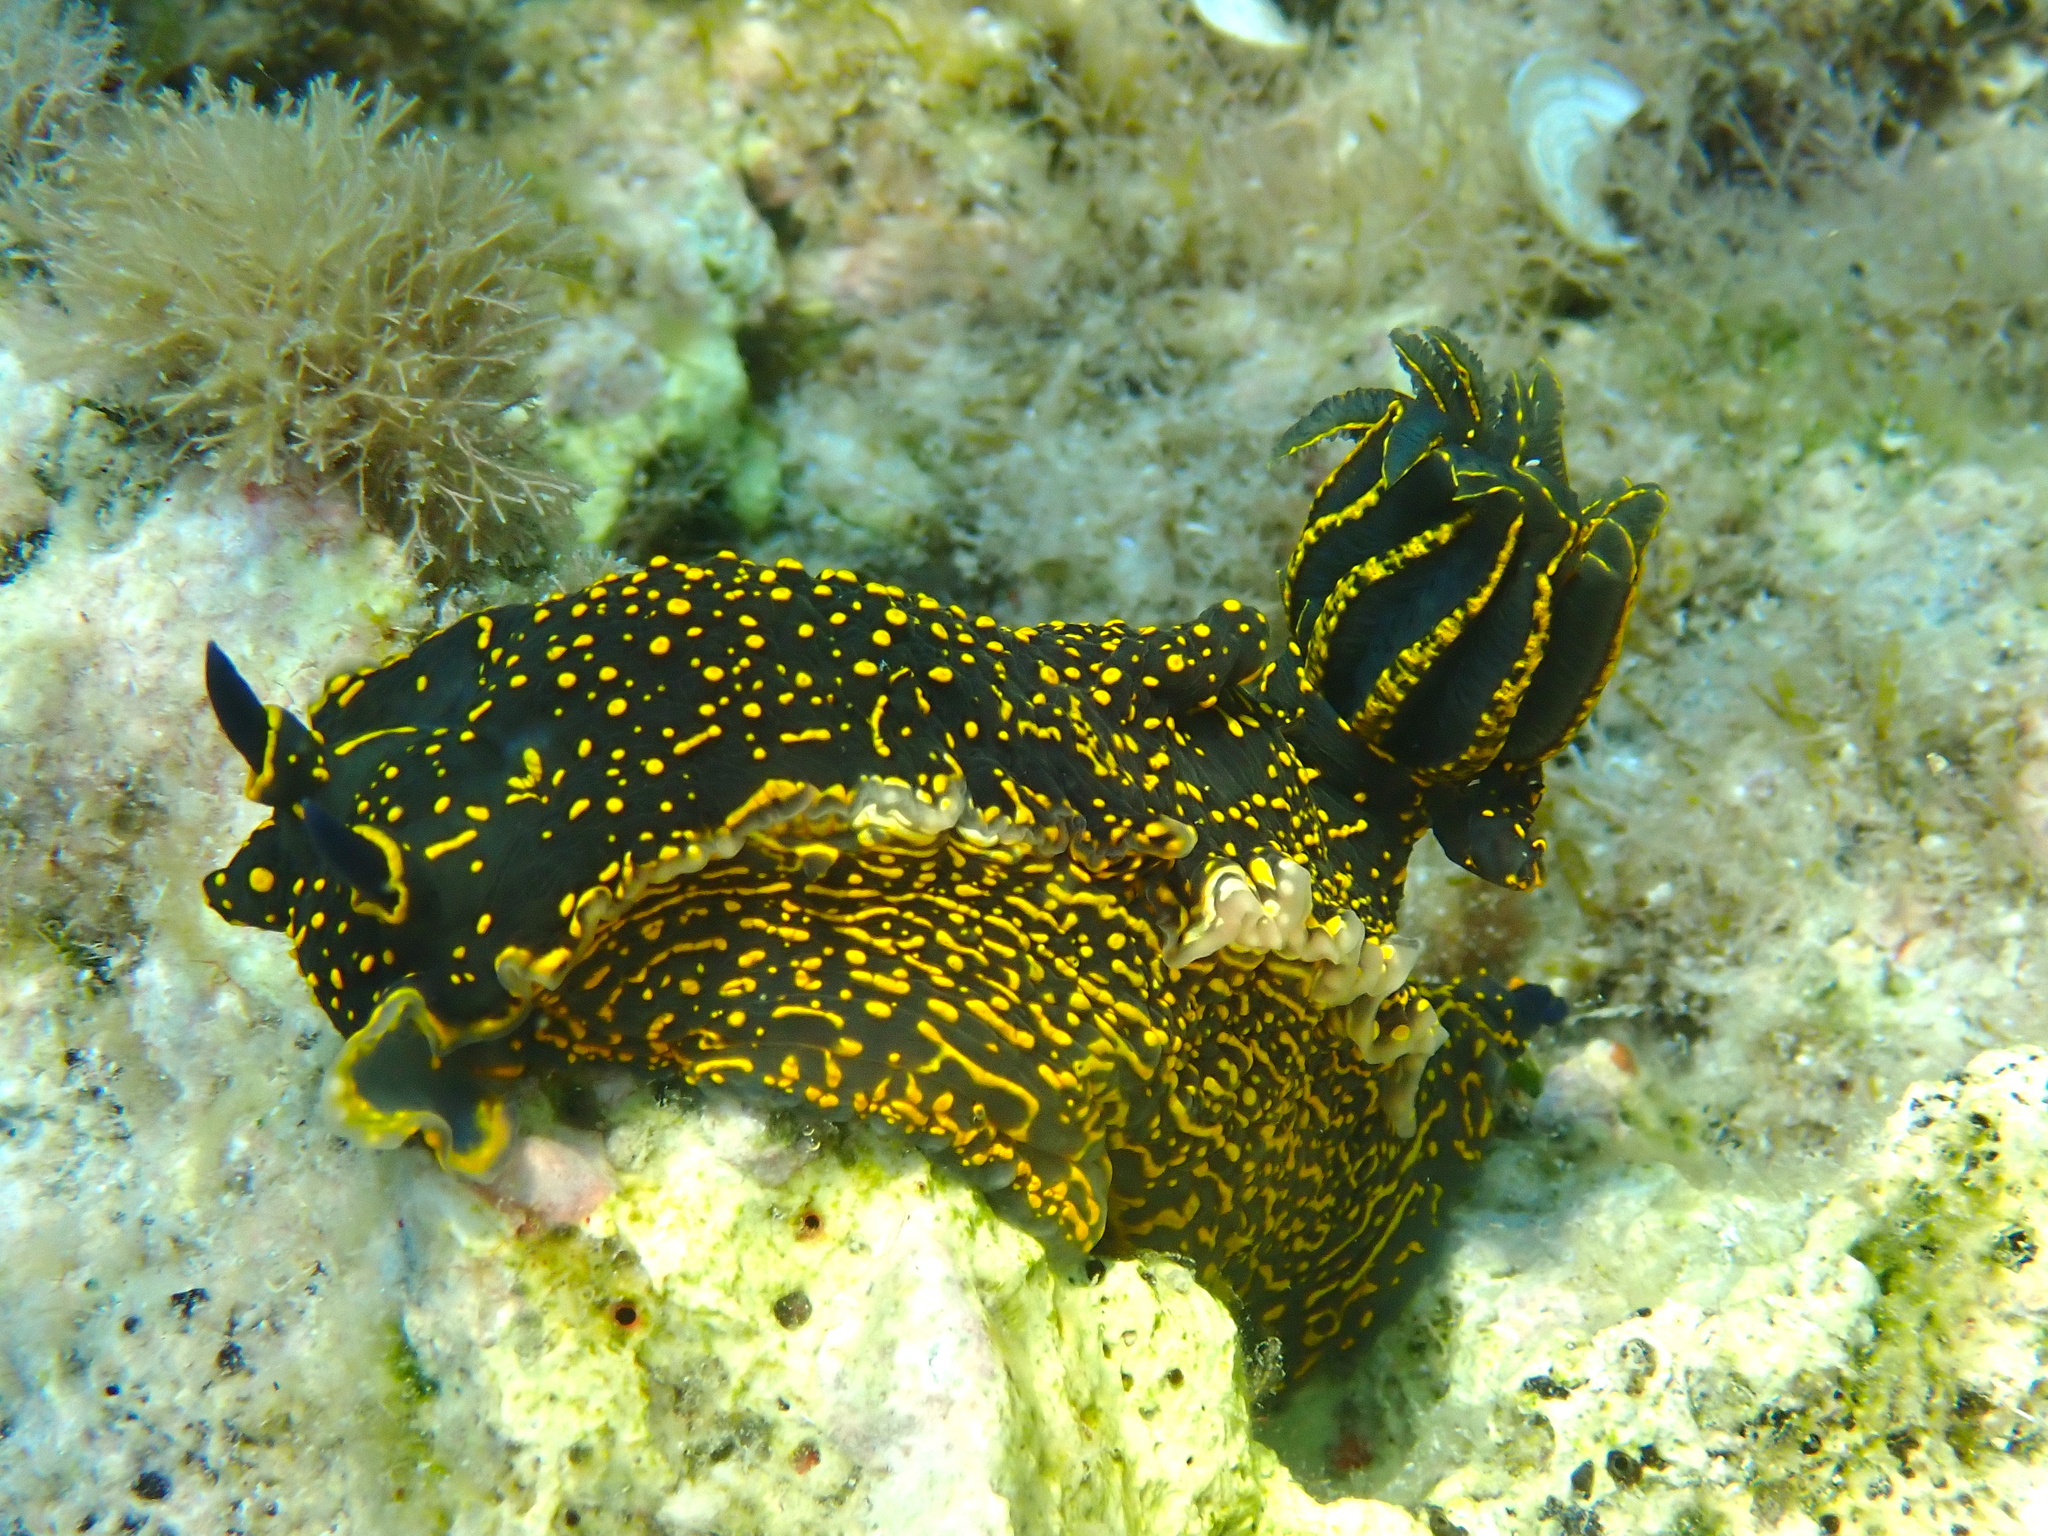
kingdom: Animalia
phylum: Mollusca
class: Gastropoda
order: Nudibranchia
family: Chromodorididae
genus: Felimare
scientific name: Felimare picta
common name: Giant doris
